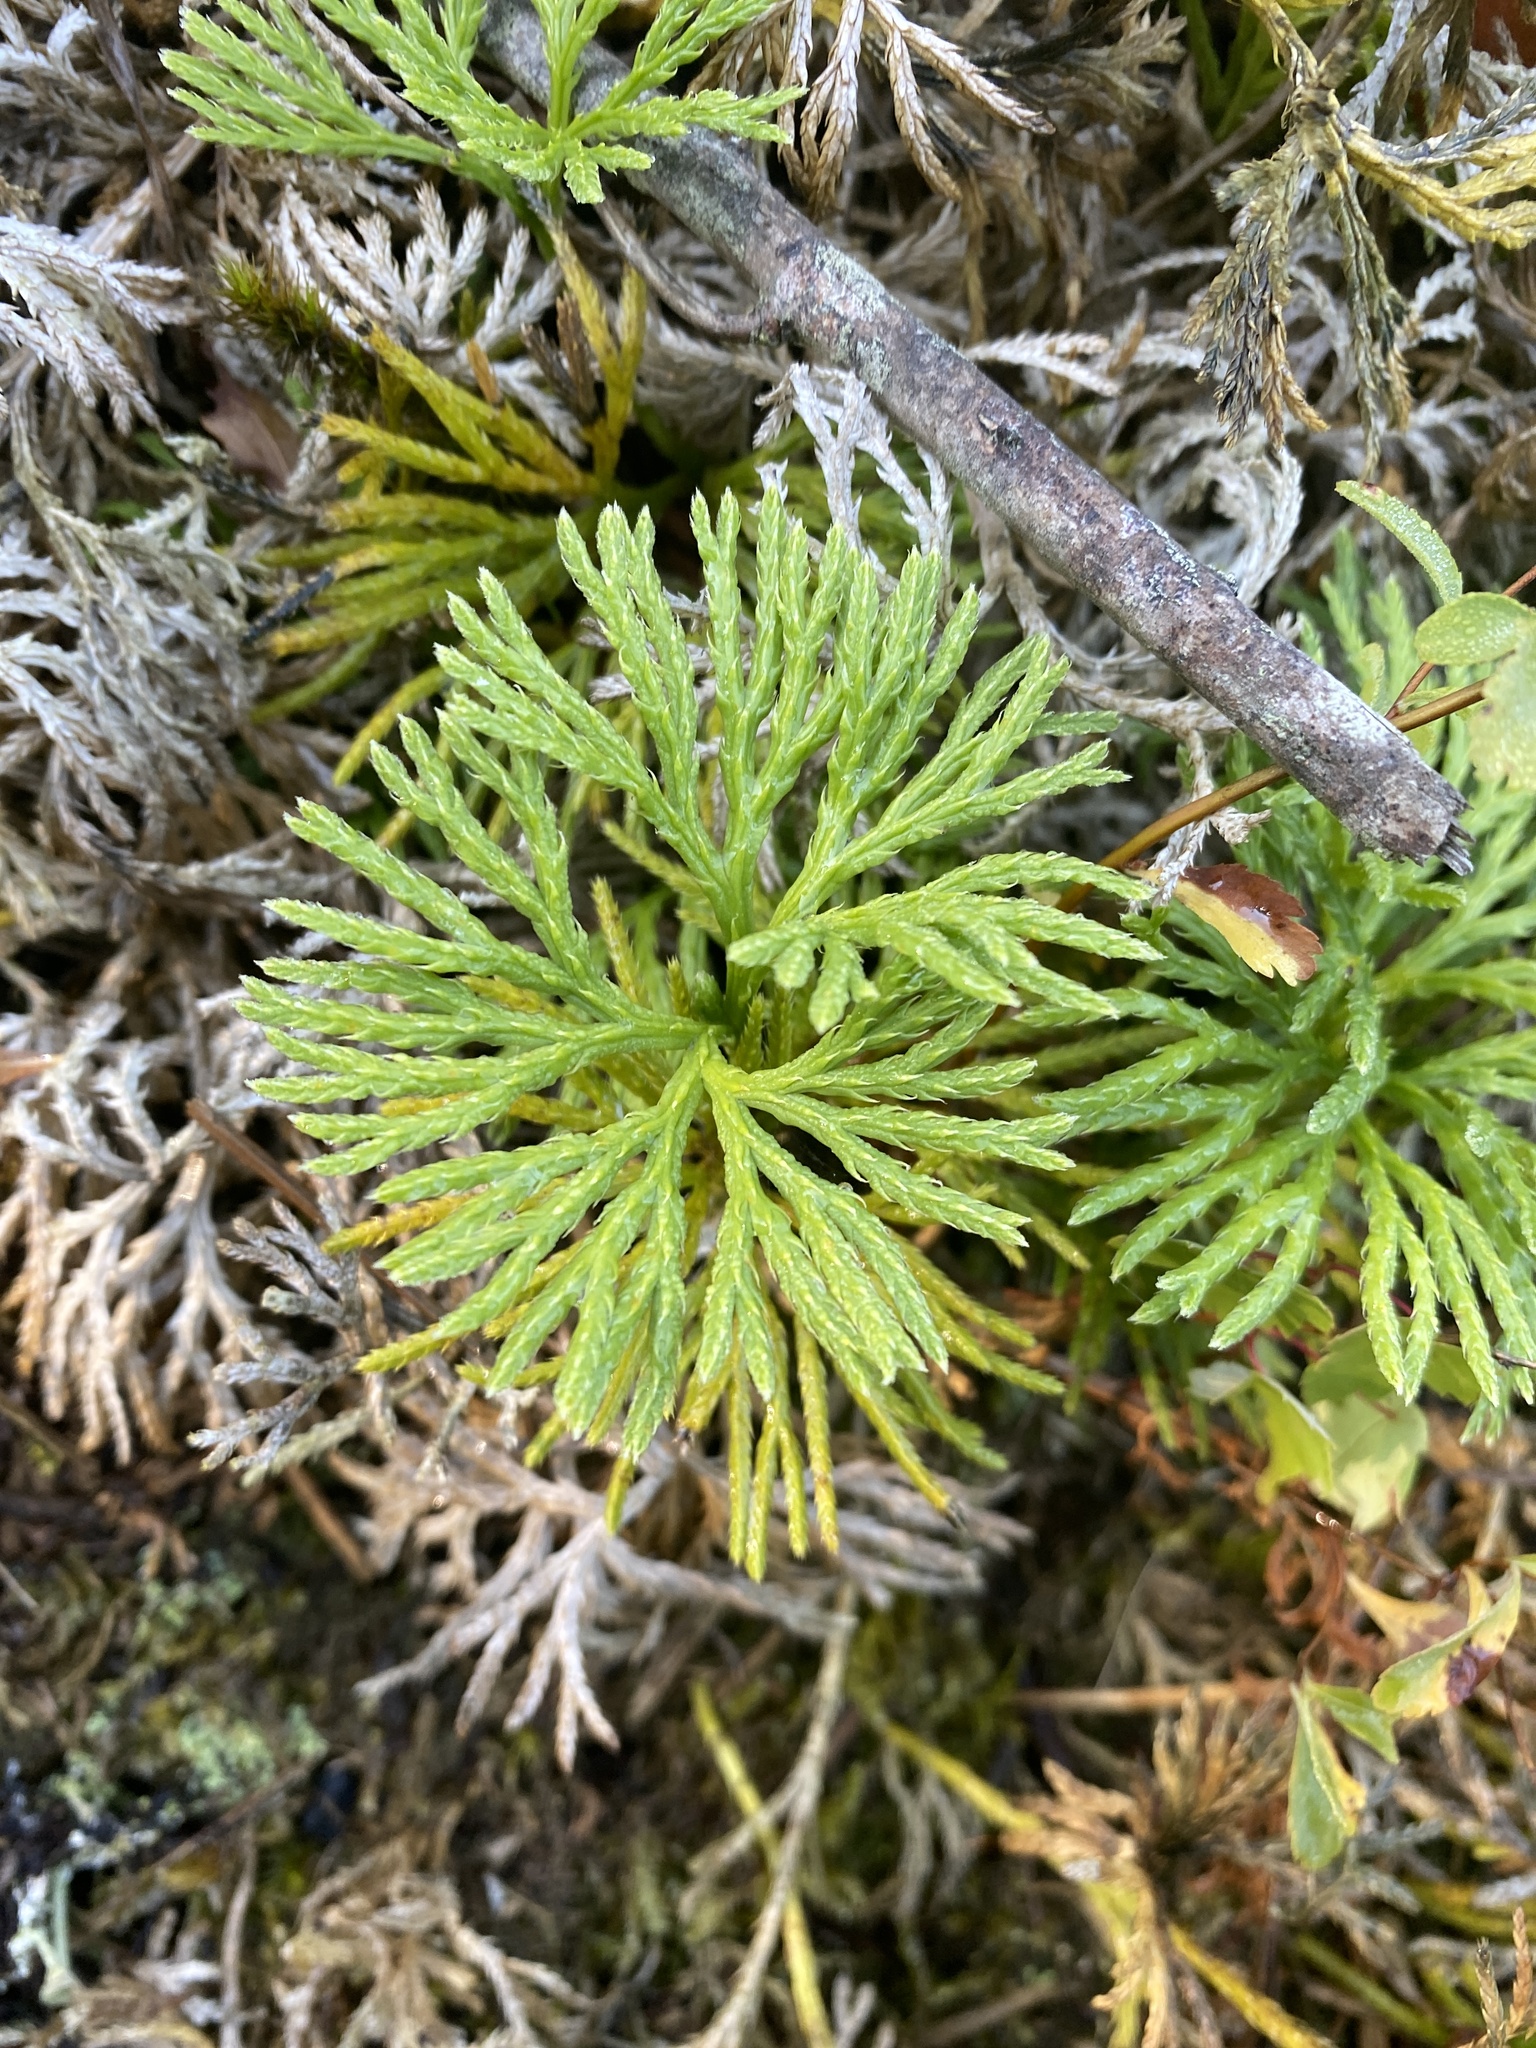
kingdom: Plantae
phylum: Tracheophyta
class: Lycopodiopsida
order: Lycopodiales
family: Lycopodiaceae
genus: Diphasiastrum
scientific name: Diphasiastrum digitatum
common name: Southern running-pine
